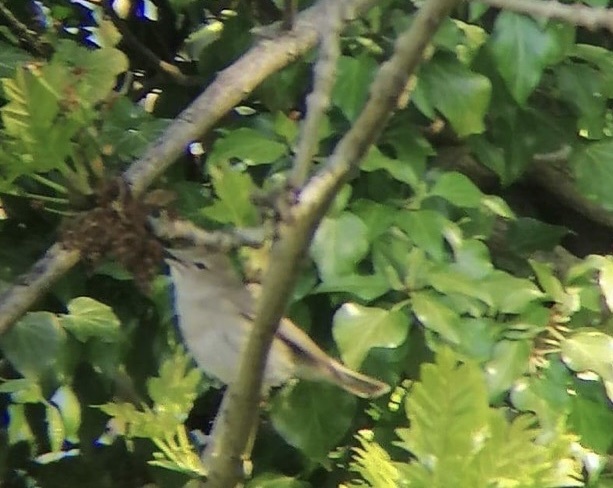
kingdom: Animalia
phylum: Chordata
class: Aves
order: Passeriformes
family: Sylviidae
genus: Sylvia
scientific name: Sylvia borin
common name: Garden warbler
